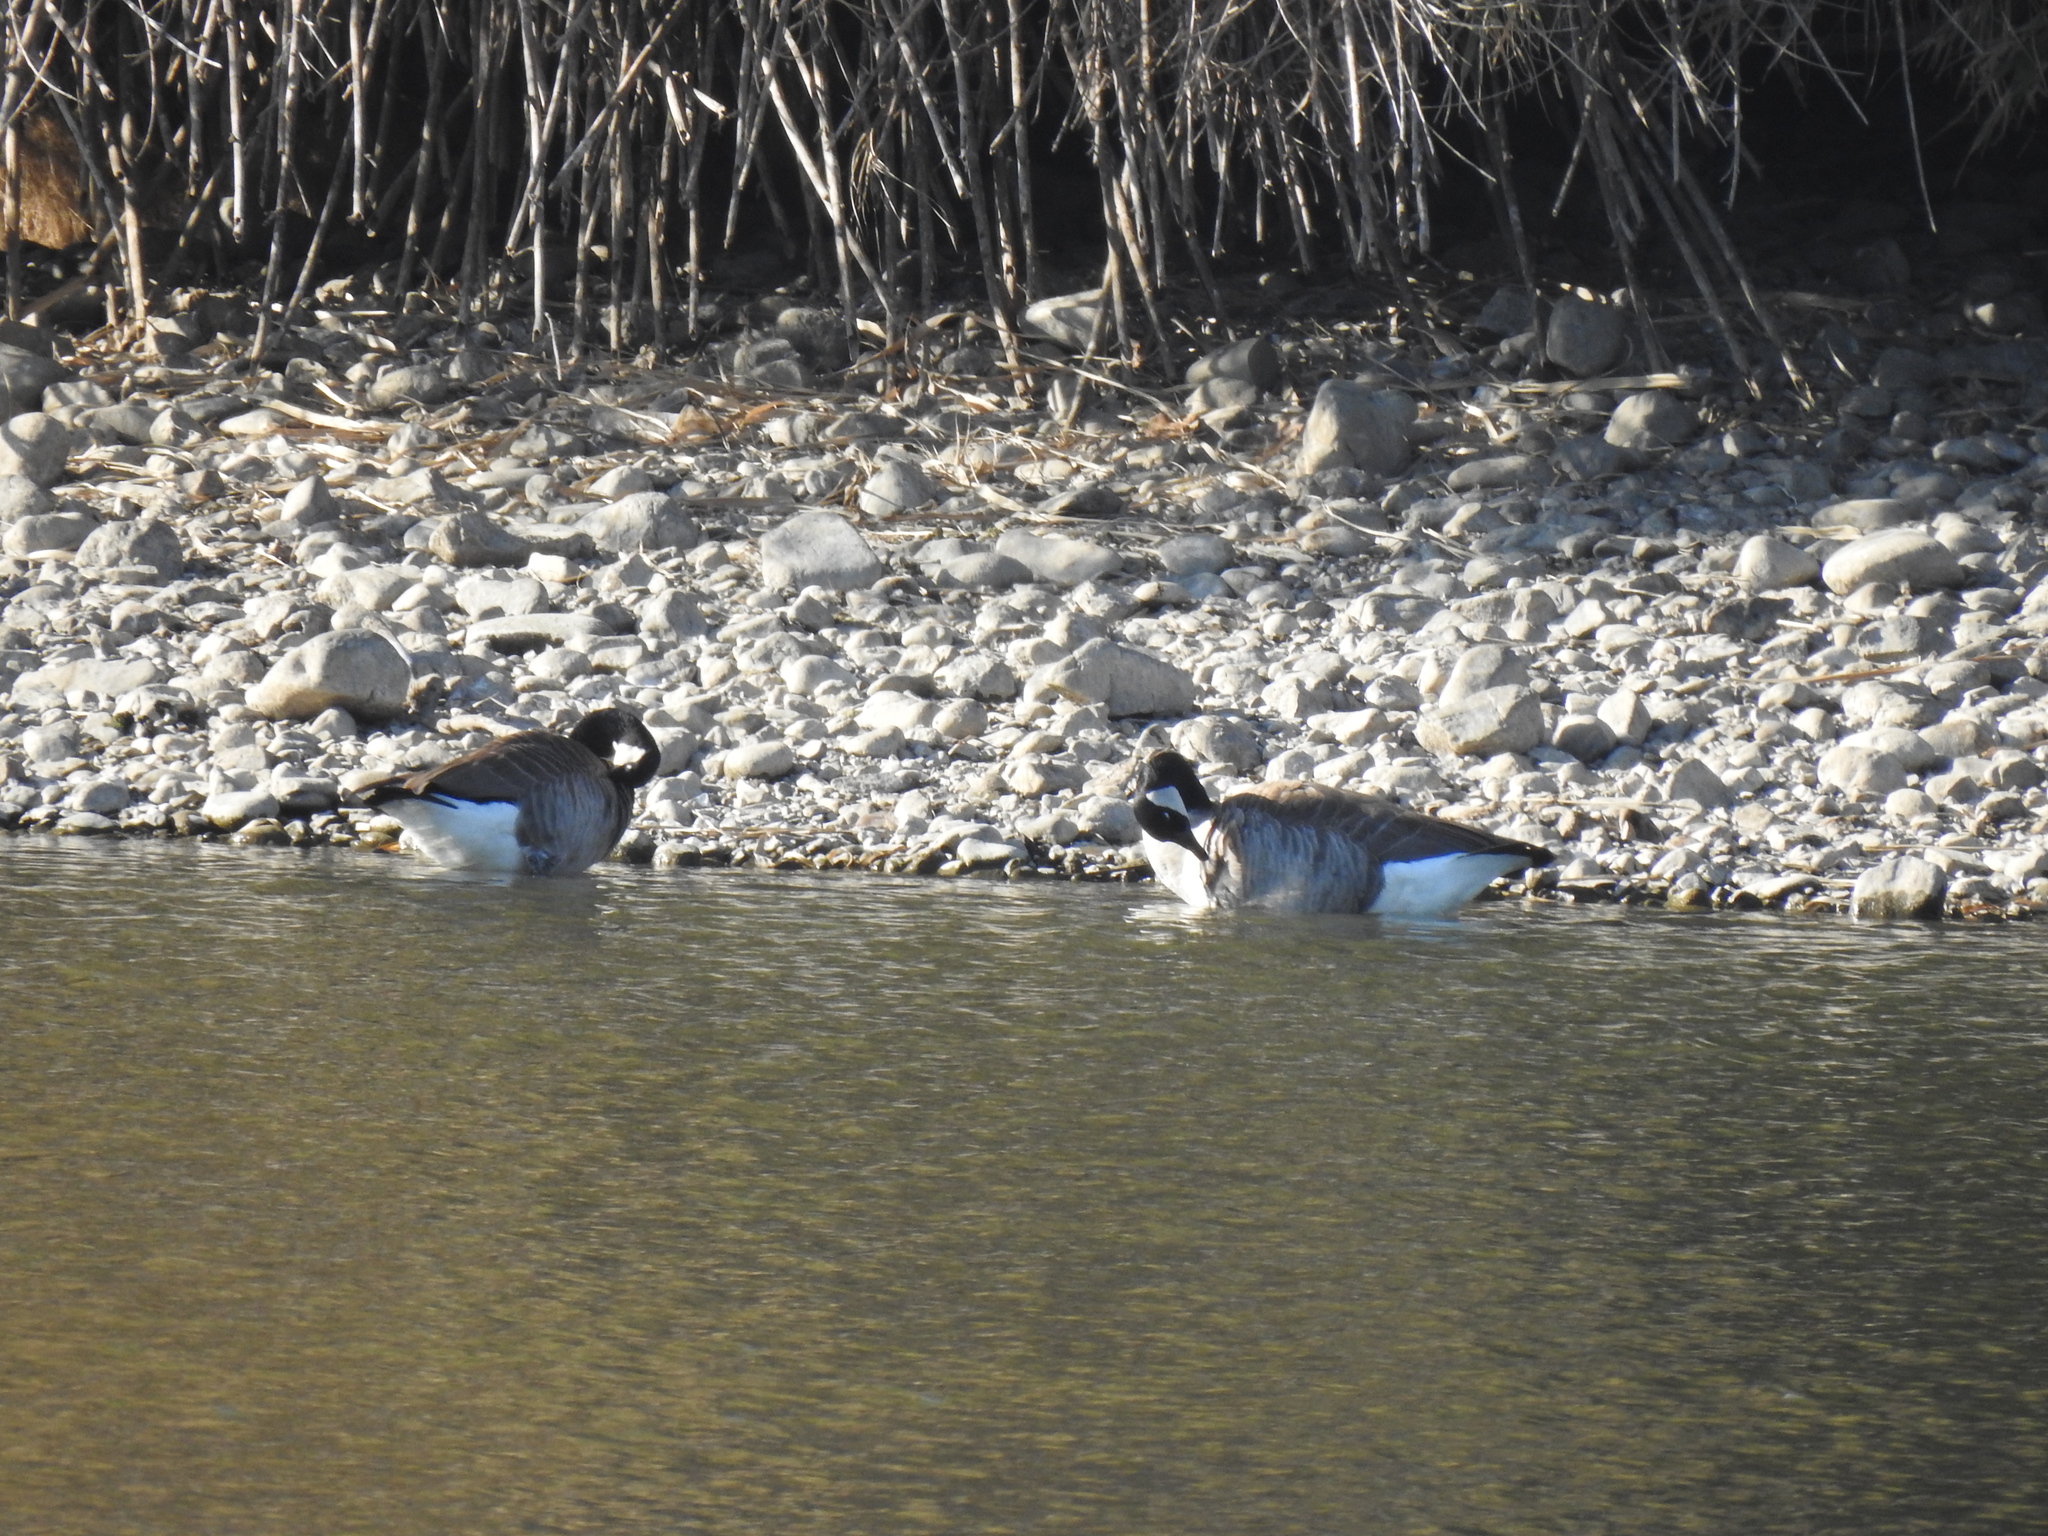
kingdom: Animalia
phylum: Chordata
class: Aves
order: Anseriformes
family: Anatidae
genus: Branta
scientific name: Branta canadensis
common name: Canada goose
